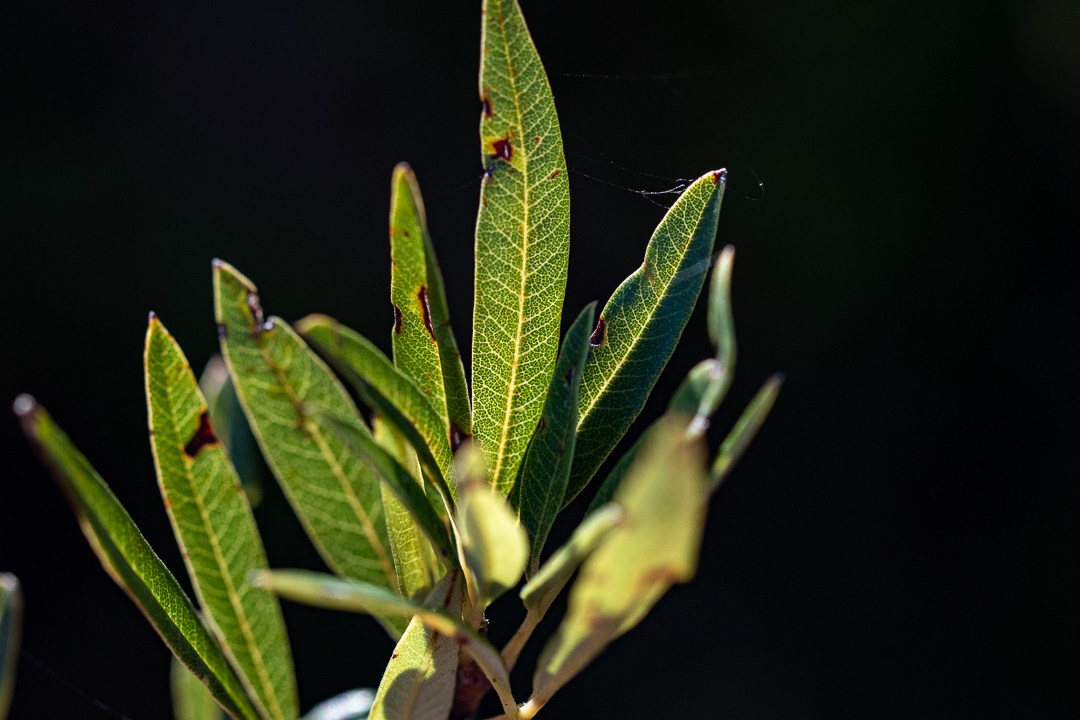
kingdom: Plantae
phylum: Tracheophyta
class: Magnoliopsida
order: Sapindales
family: Anacardiaceae
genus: Searsia
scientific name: Searsia angustifolia
